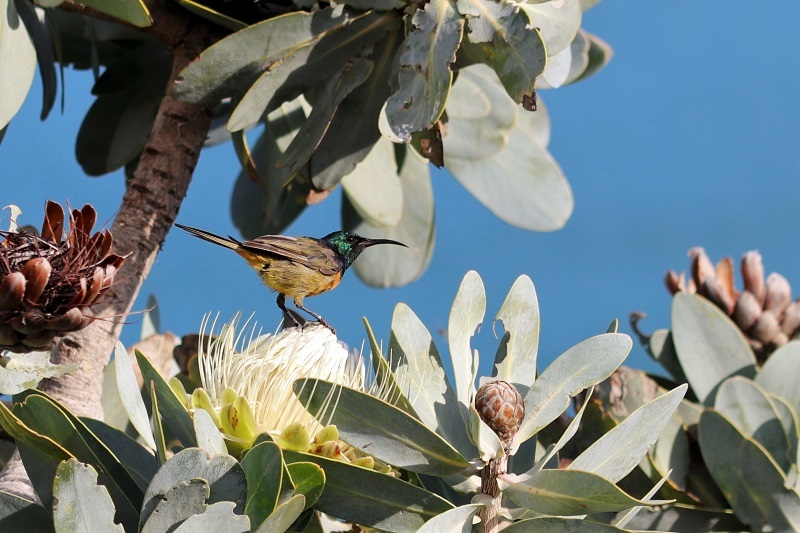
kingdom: Animalia
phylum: Chordata
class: Aves
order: Passeriformes
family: Nectariniidae
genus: Anthobaphes
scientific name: Anthobaphes violacea
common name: Orange-breasted sunbird
